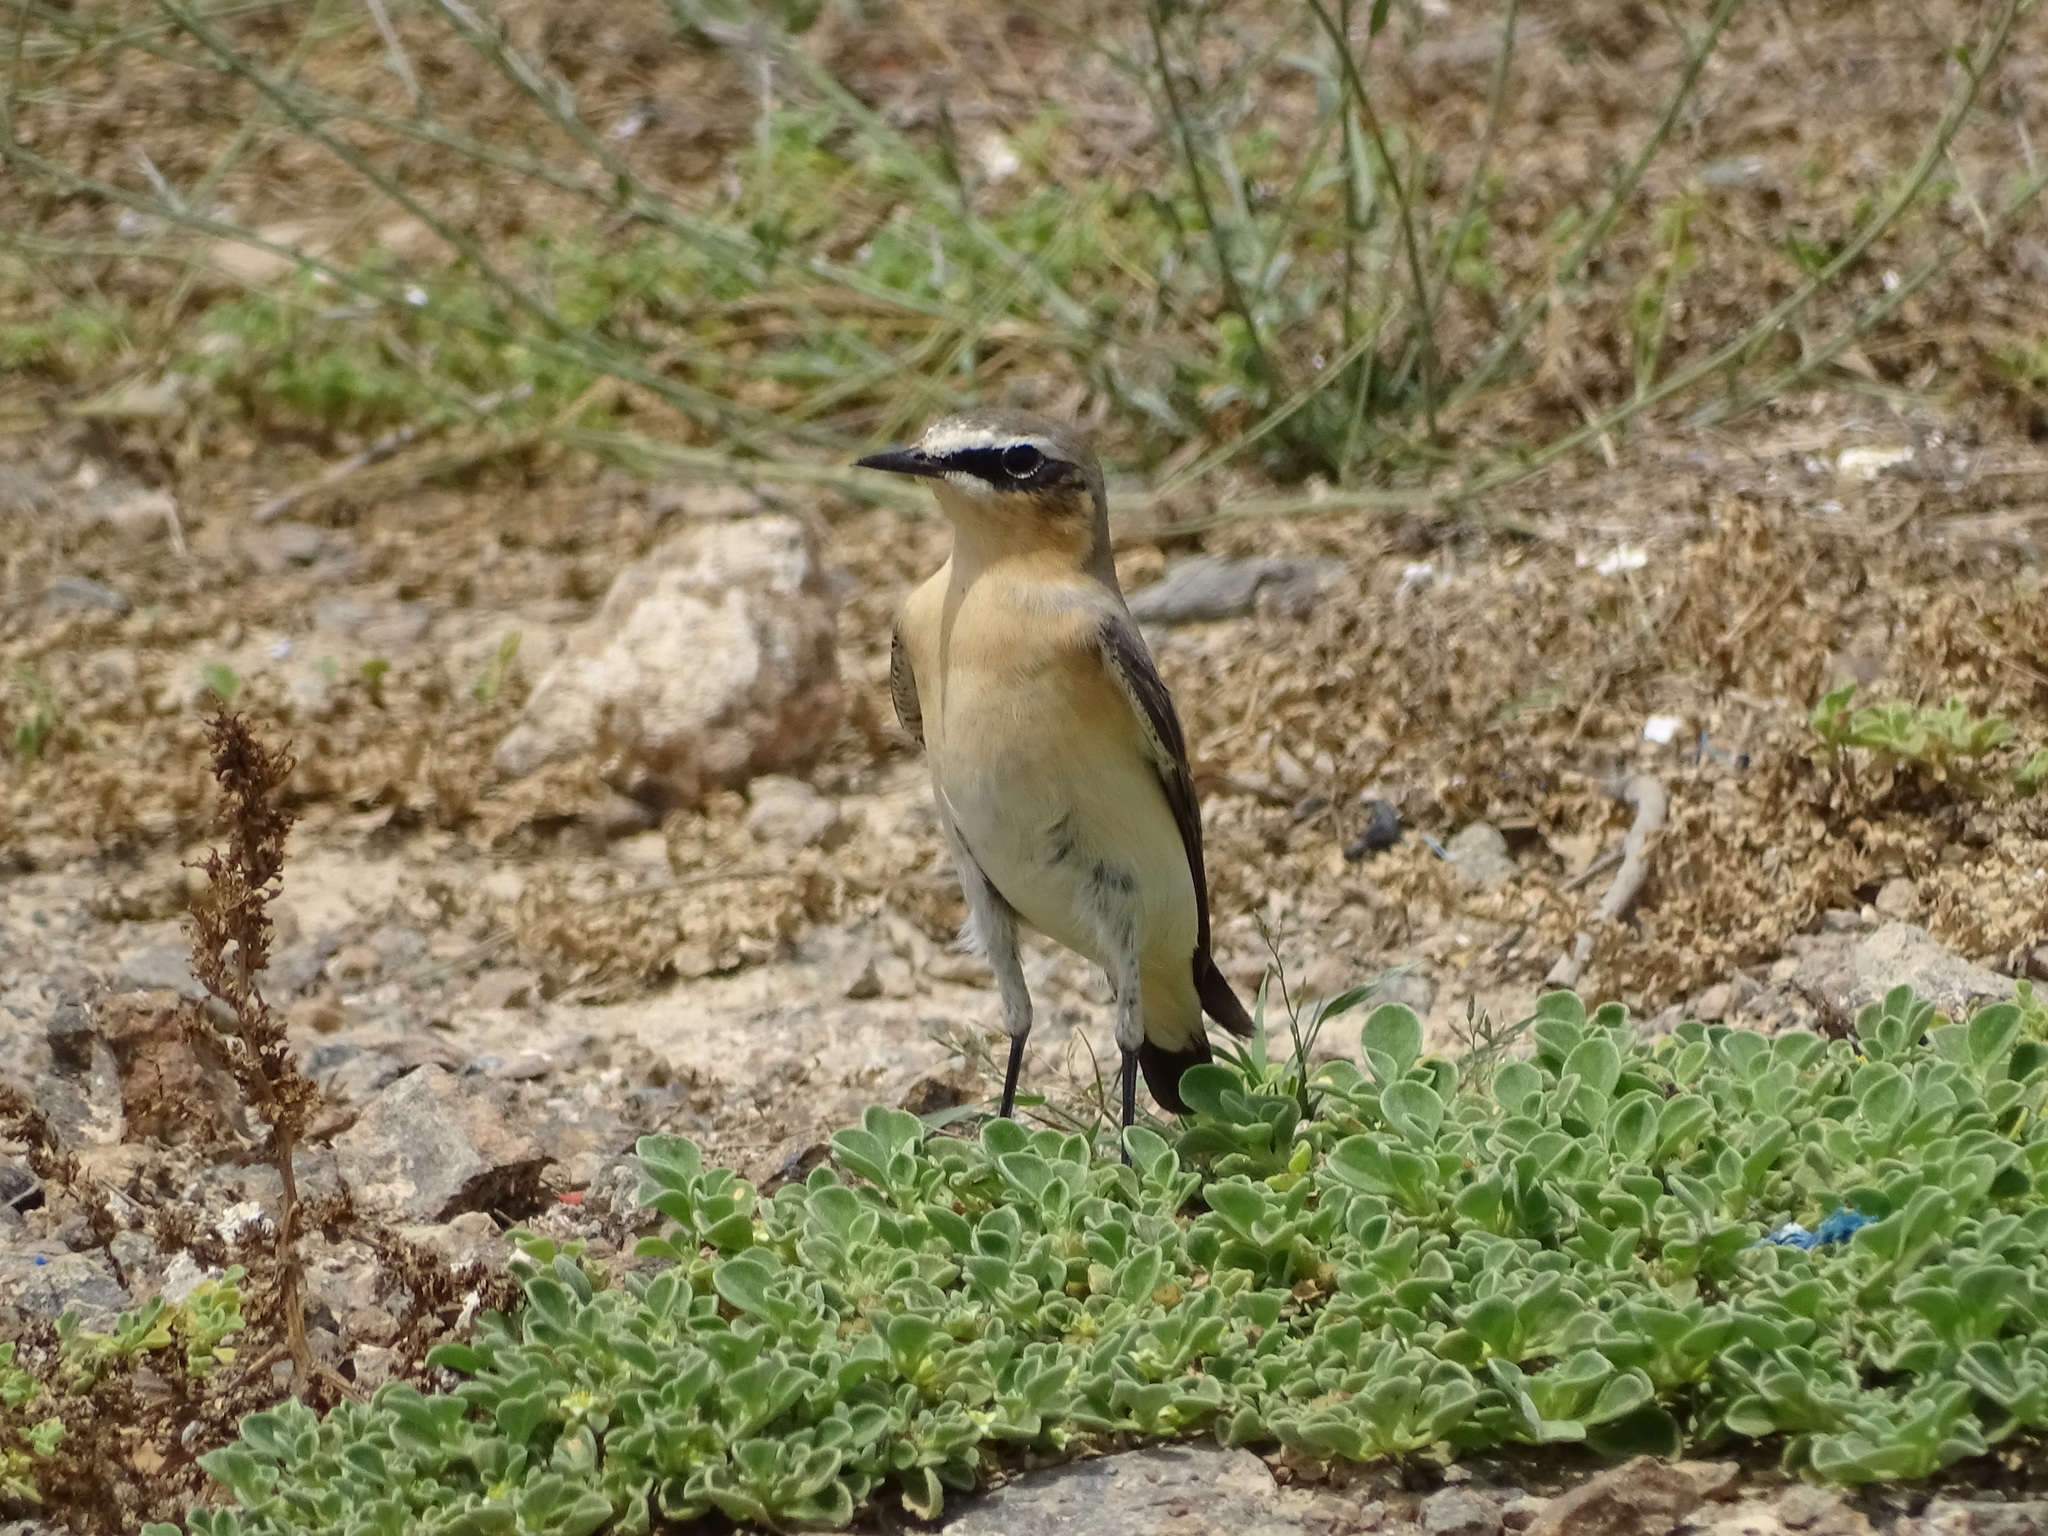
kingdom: Animalia
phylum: Chordata
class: Aves
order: Passeriformes
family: Muscicapidae
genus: Oenanthe
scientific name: Oenanthe oenanthe
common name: Northern wheatear
